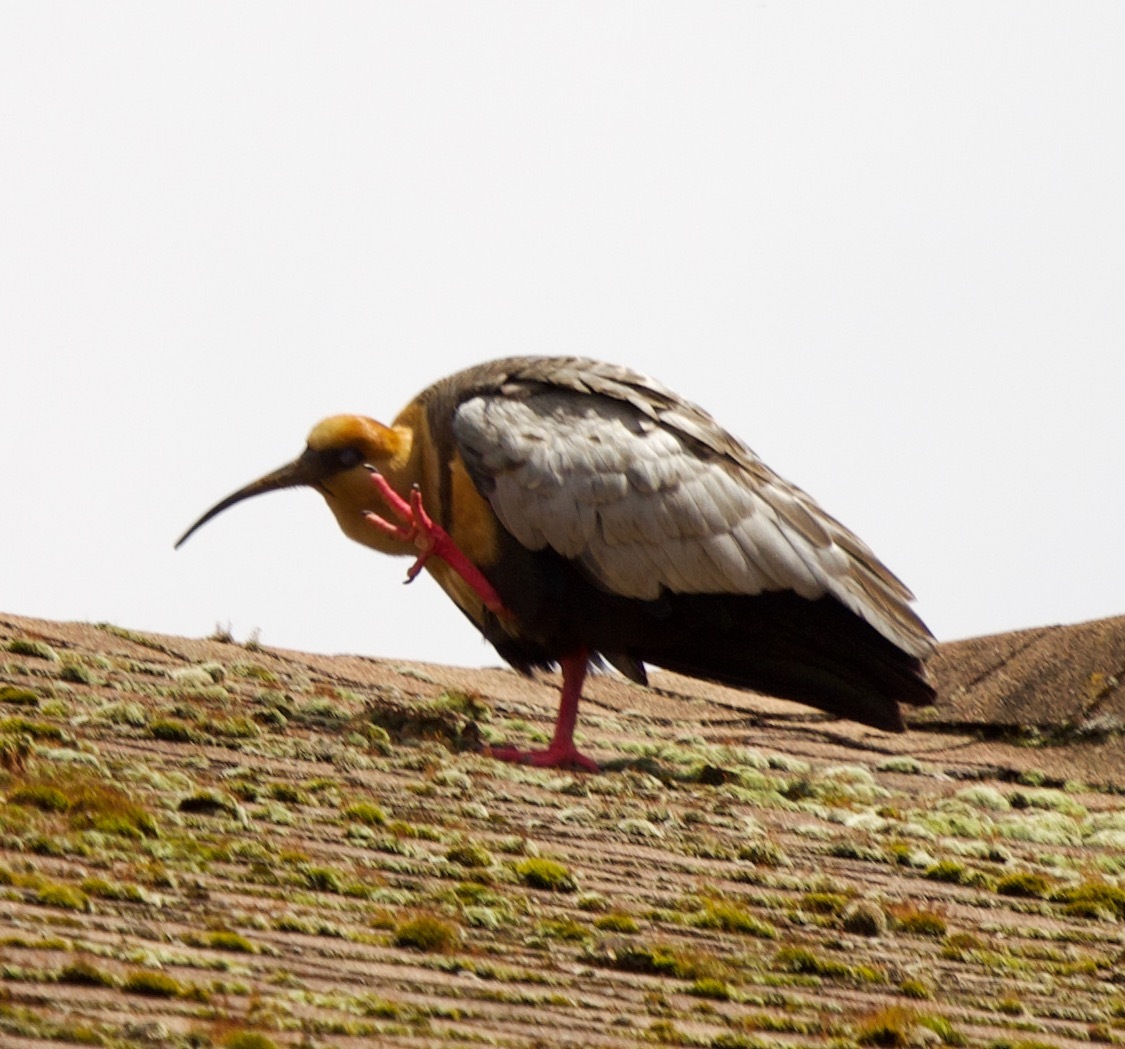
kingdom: Animalia
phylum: Chordata
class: Aves
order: Pelecaniformes
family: Threskiornithidae
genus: Theristicus
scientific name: Theristicus melanopis
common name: Black-faced ibis
